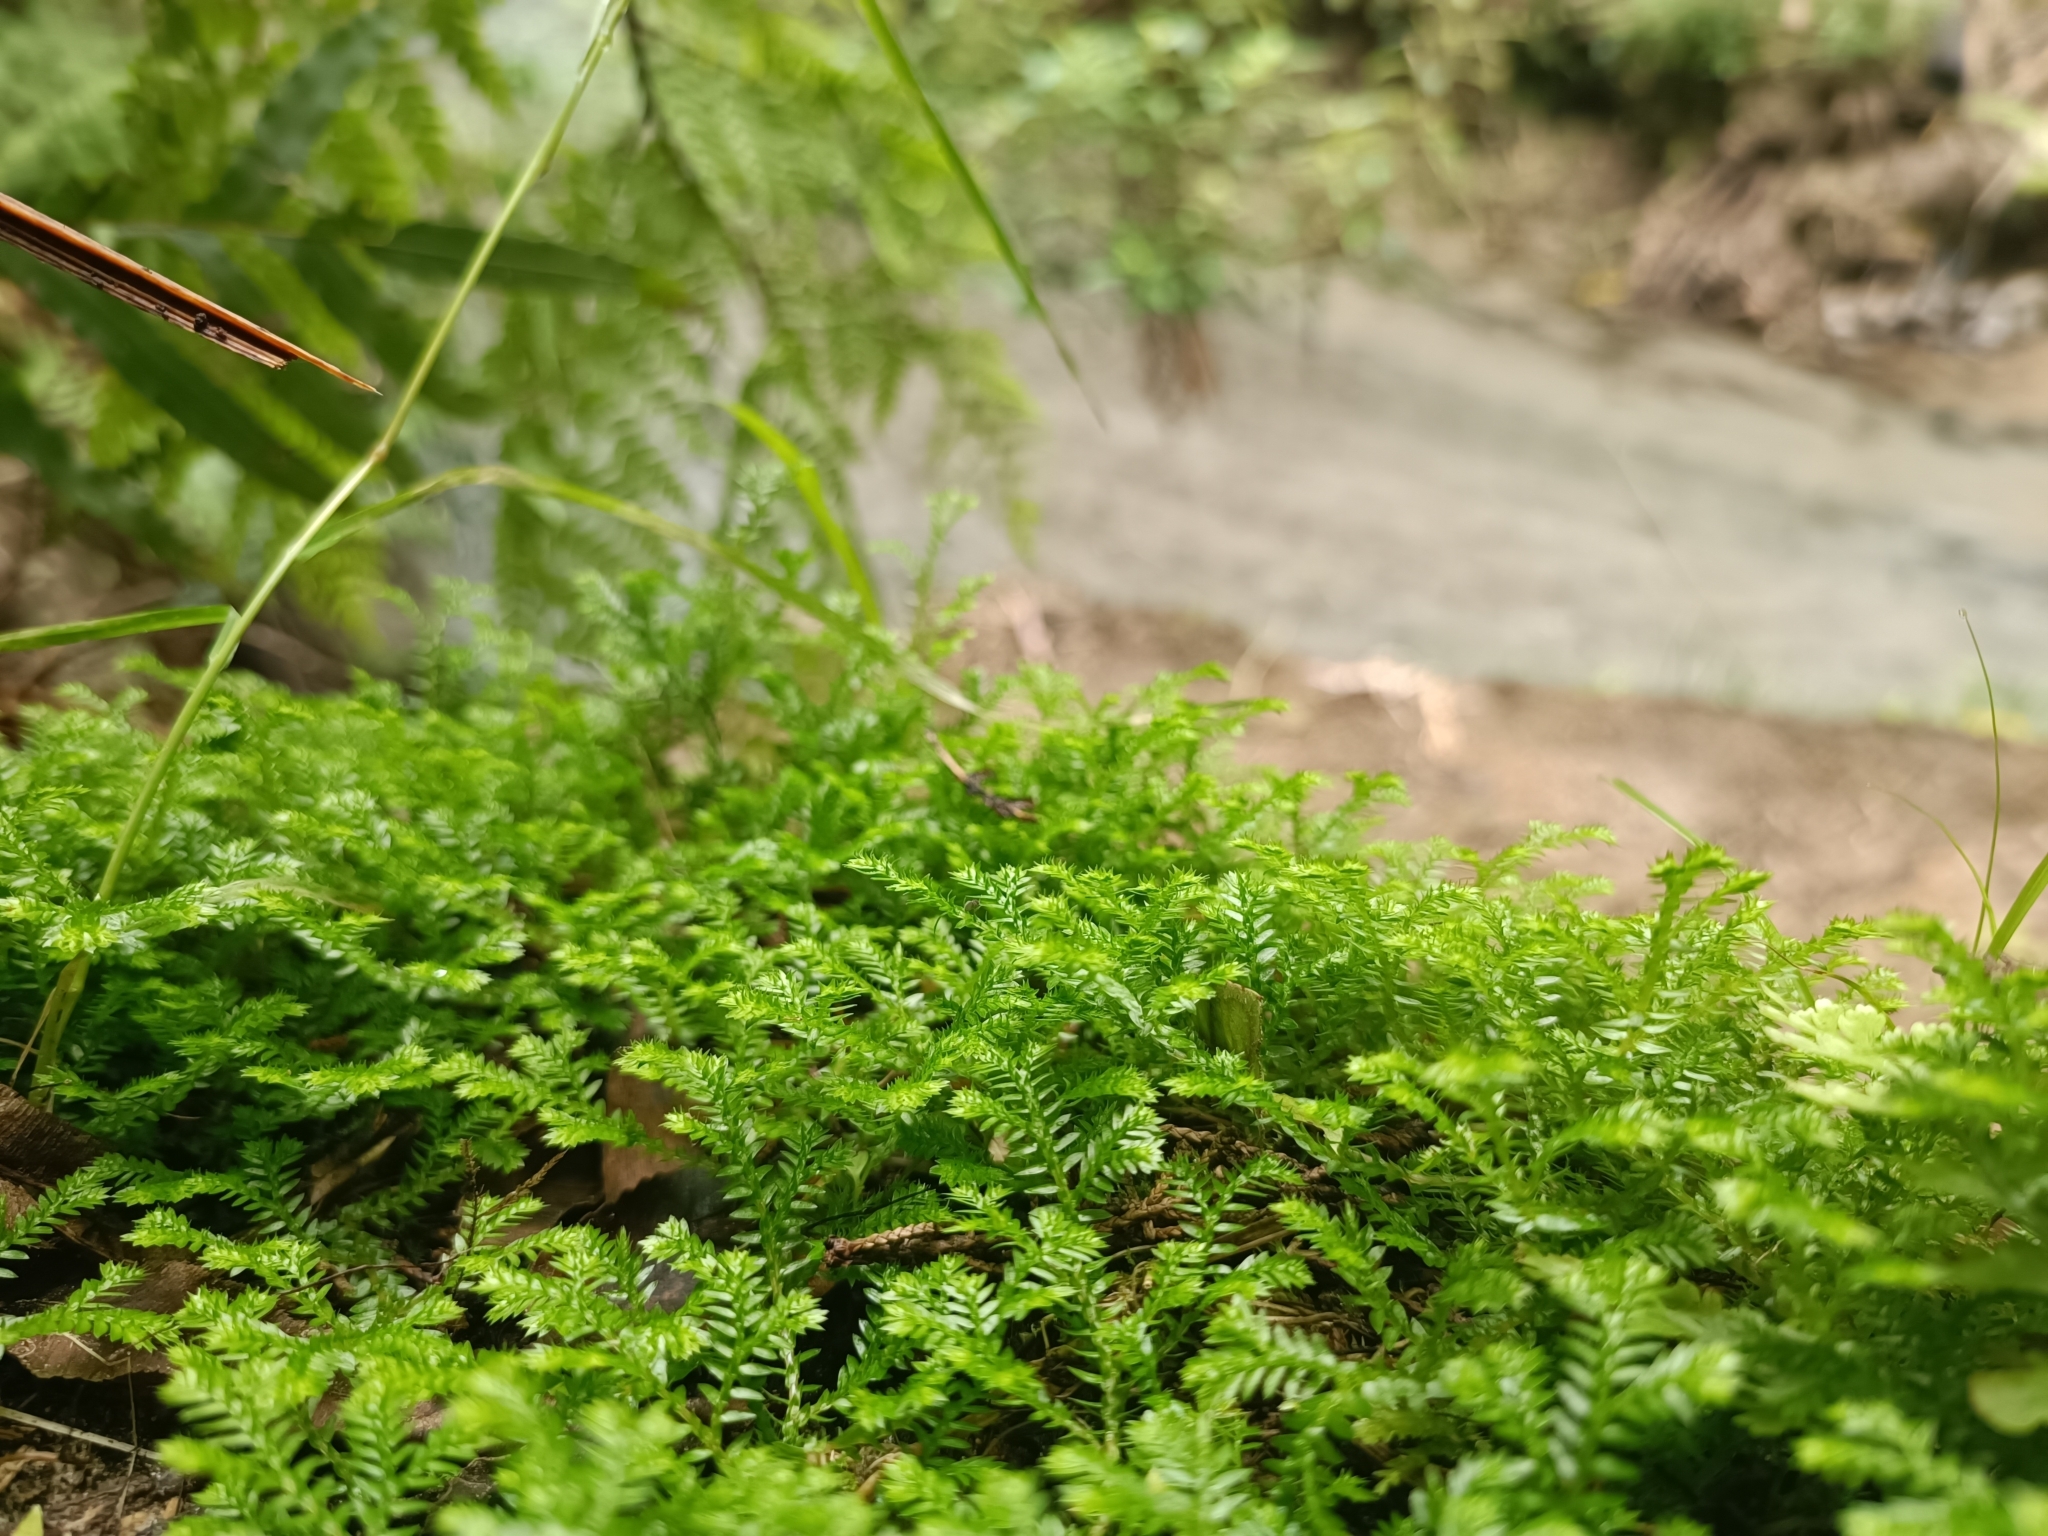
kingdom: Plantae
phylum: Tracheophyta
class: Lycopodiopsida
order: Selaginellales
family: Selaginellaceae
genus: Selaginella
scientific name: Selaginella kraussiana
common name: Krauss' spikemoss
